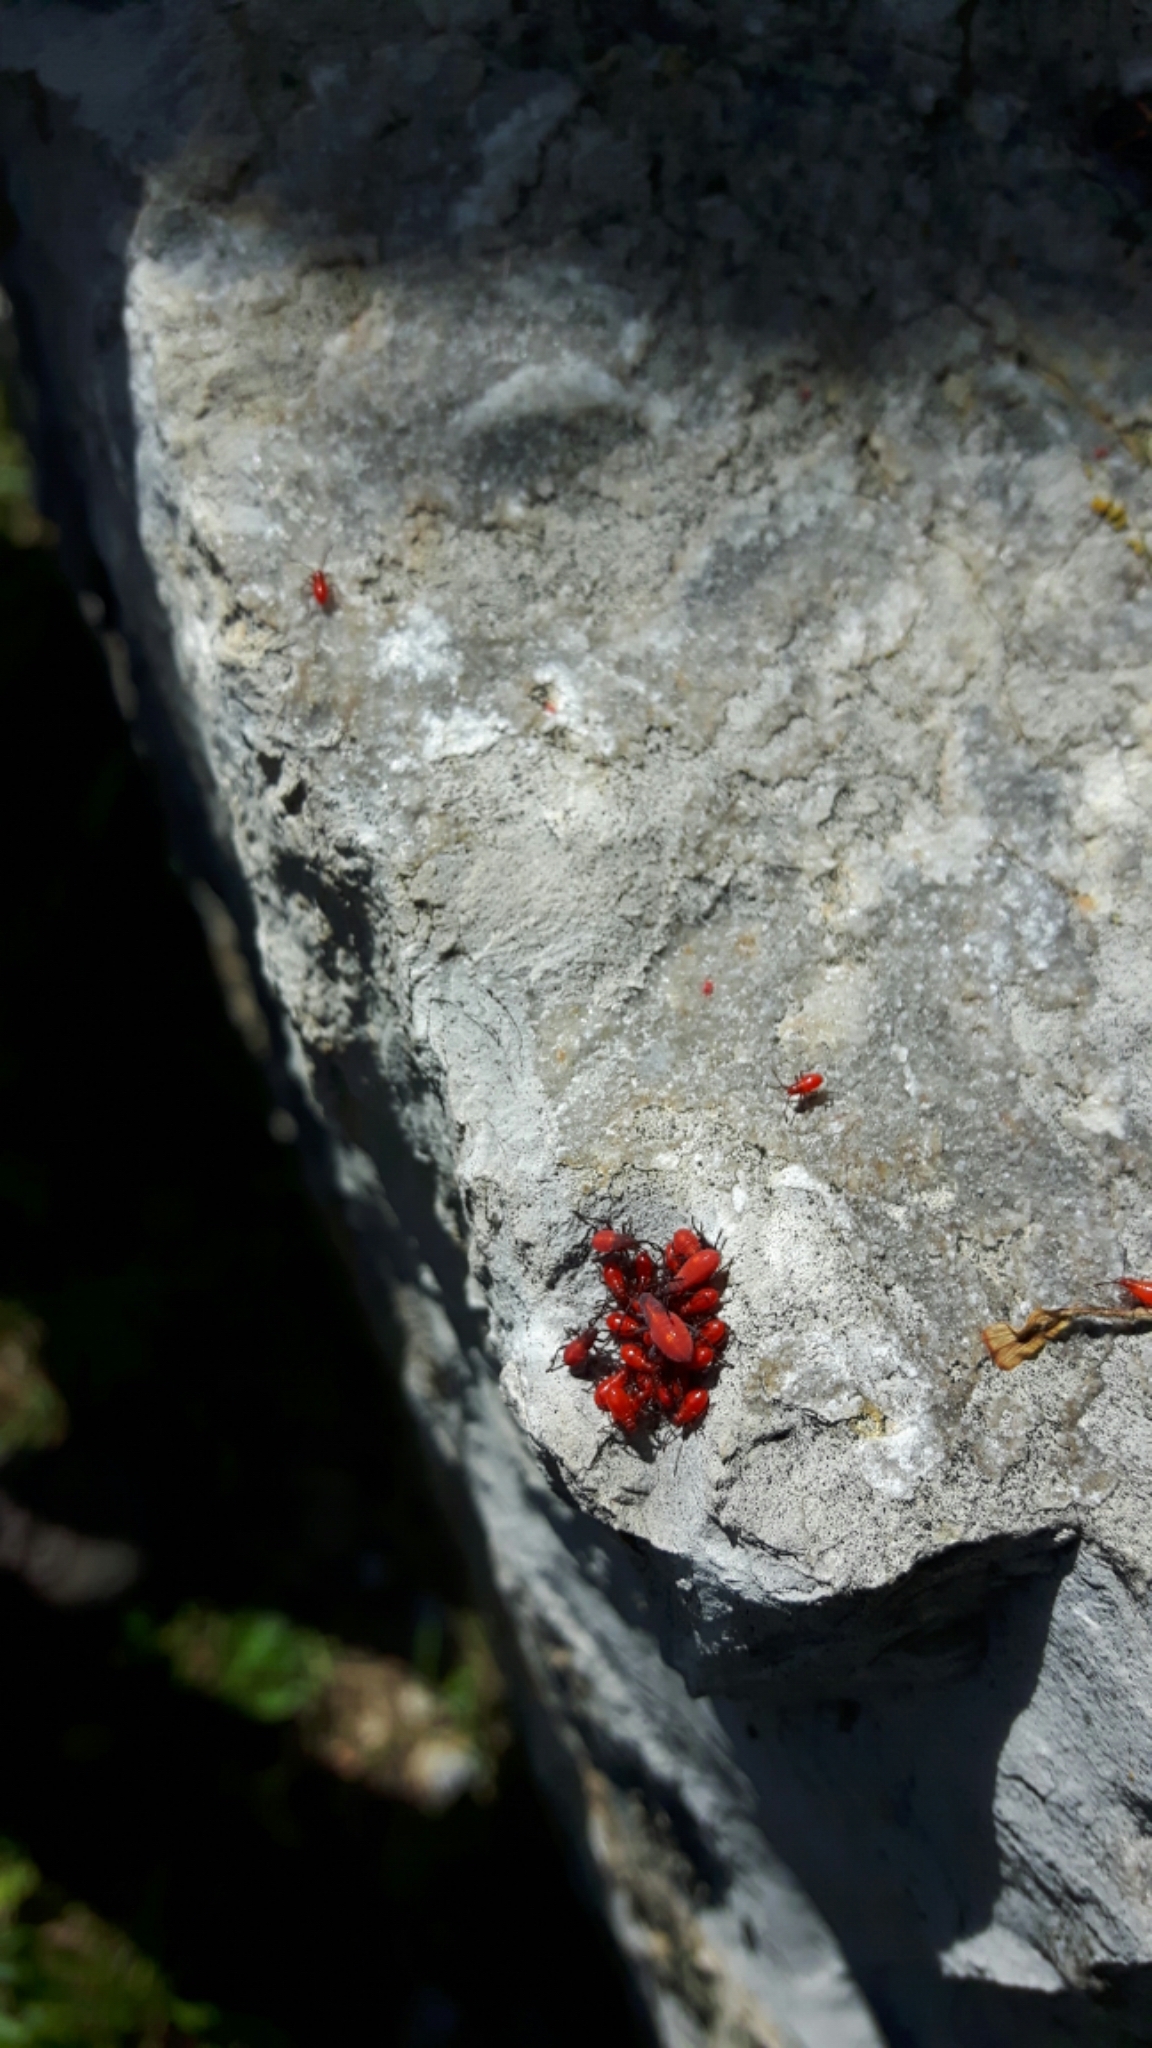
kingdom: Animalia
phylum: Arthropoda
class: Insecta
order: Hemiptera
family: Rhopalidae
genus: Boisea
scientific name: Boisea trivittata
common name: Boxelder bug
